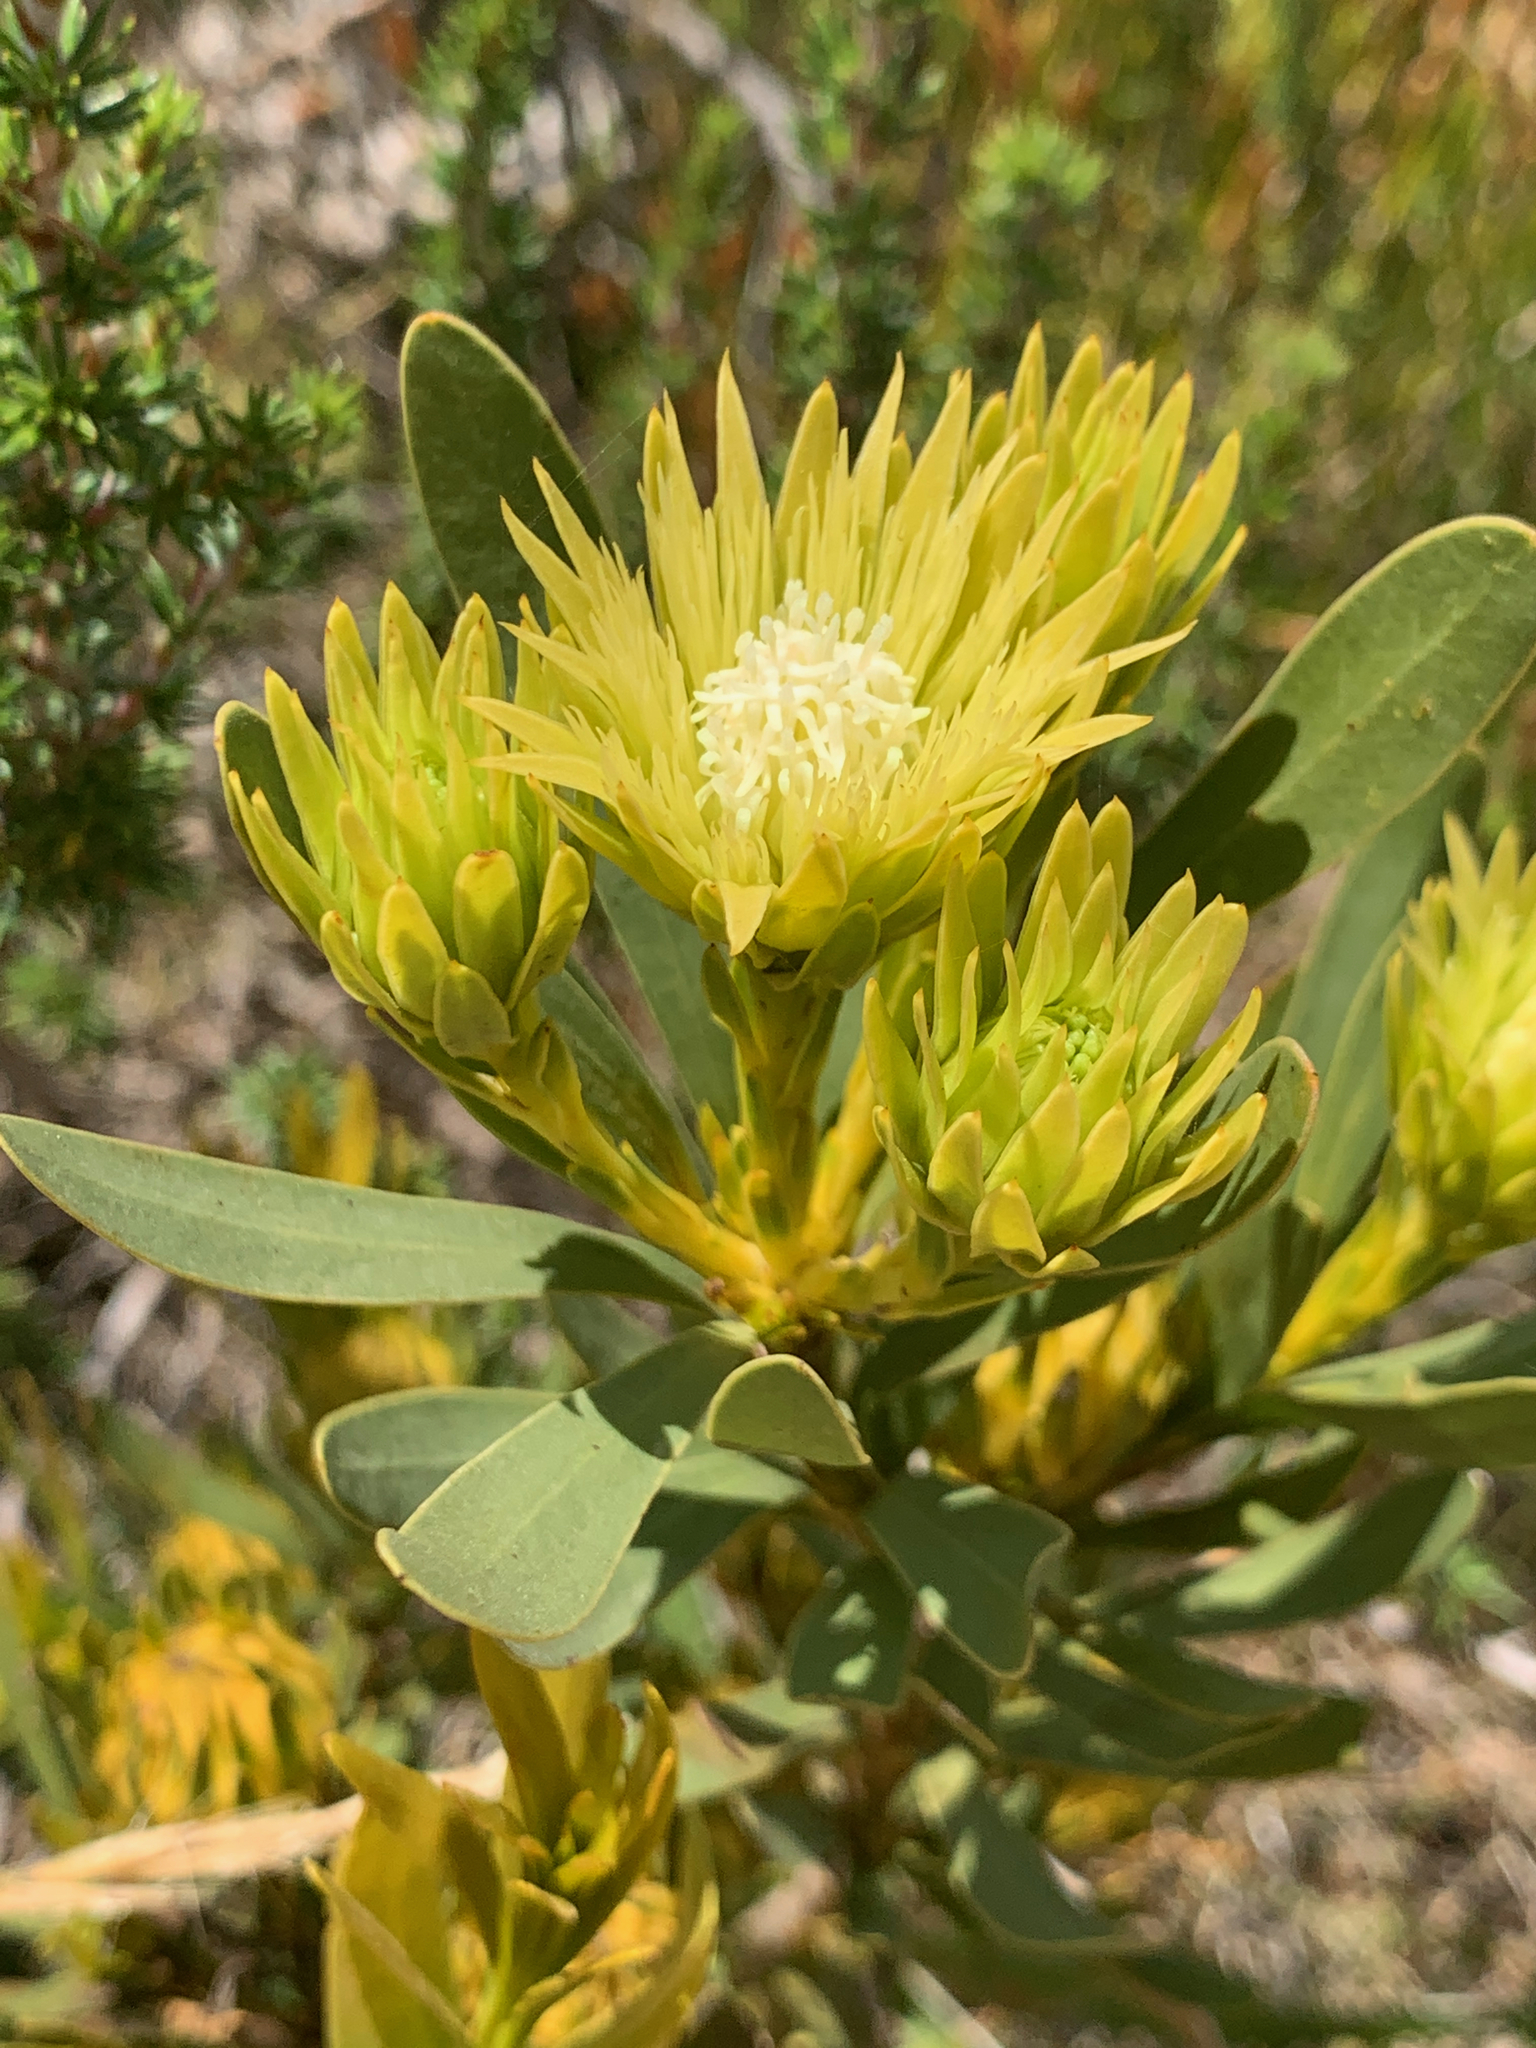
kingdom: Plantae
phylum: Tracheophyta
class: Magnoliopsida
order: Proteales
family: Proteaceae
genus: Aulax
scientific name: Aulax umbellata
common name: Broad-leaf featherbush
